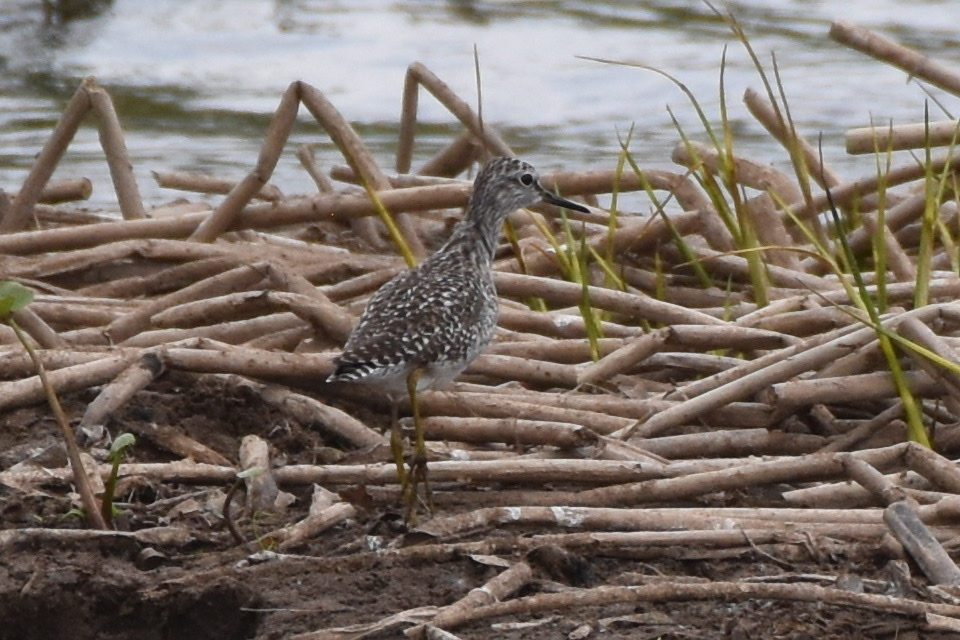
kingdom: Animalia
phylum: Chordata
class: Aves
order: Charadriiformes
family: Scolopacidae
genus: Tringa
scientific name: Tringa glareola
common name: Wood sandpiper
